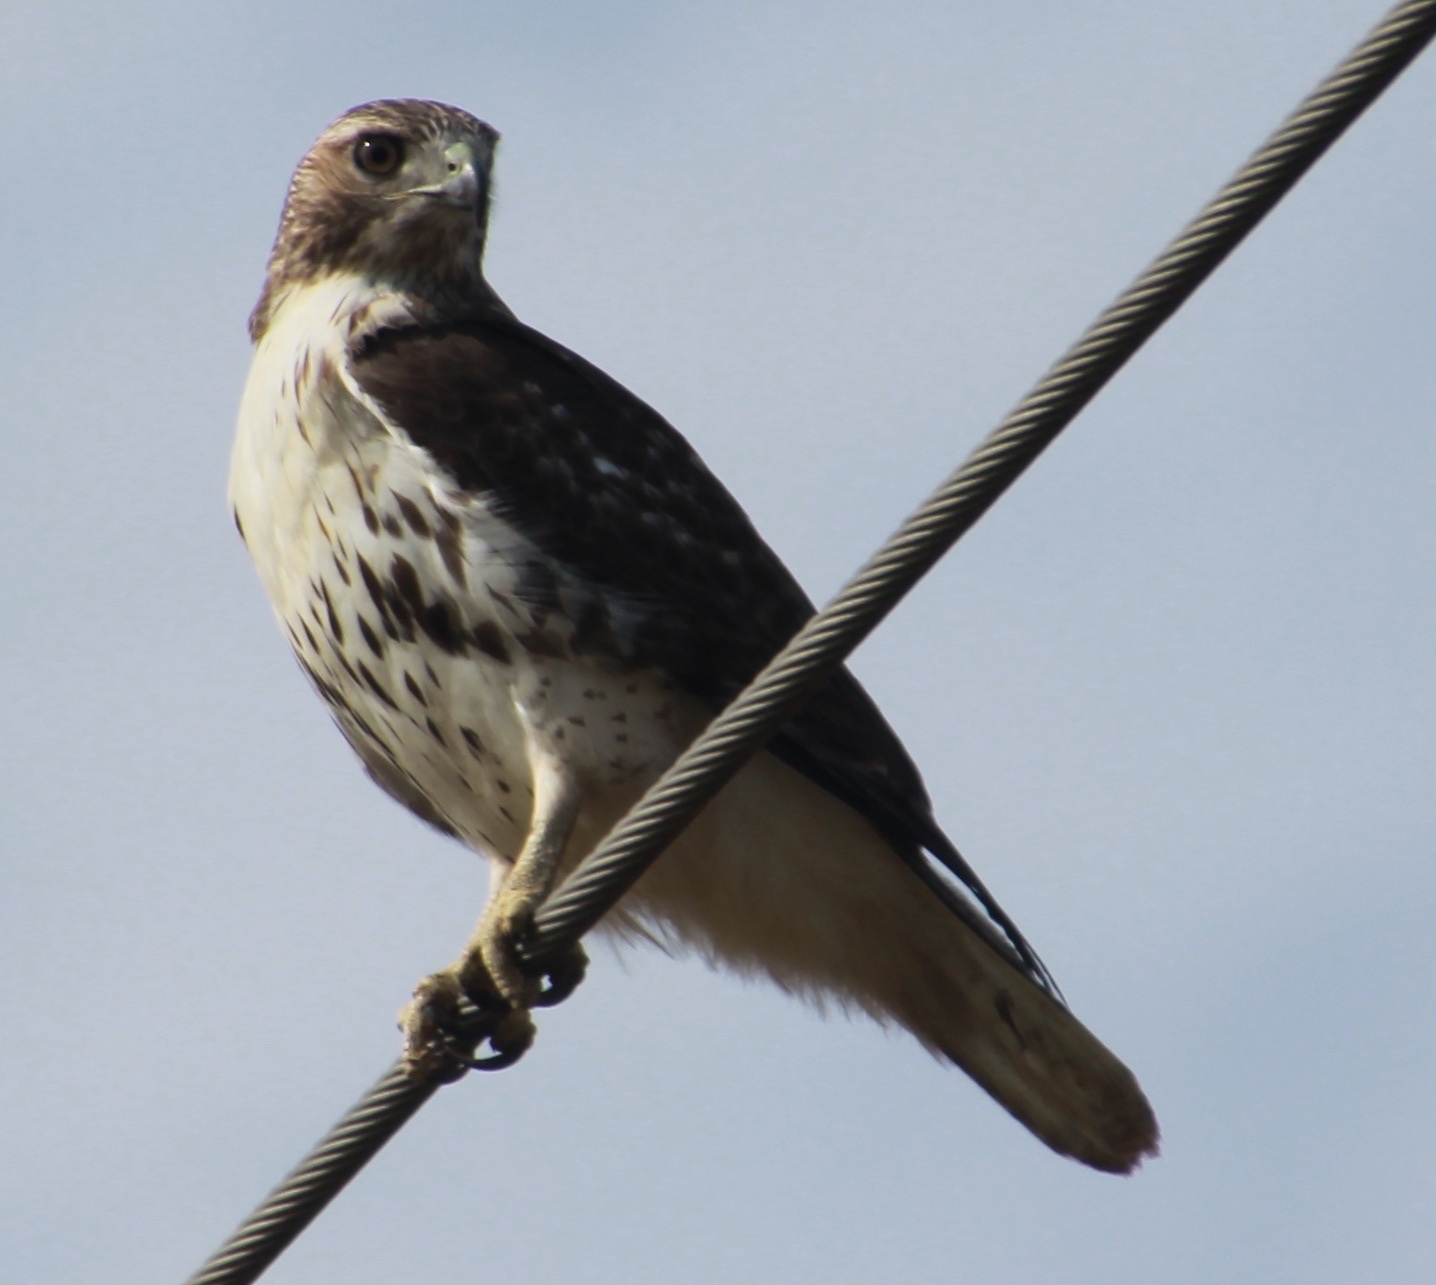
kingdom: Animalia
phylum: Chordata
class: Aves
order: Accipitriformes
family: Accipitridae
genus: Buteo
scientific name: Buteo jamaicensis
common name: Red-tailed hawk
